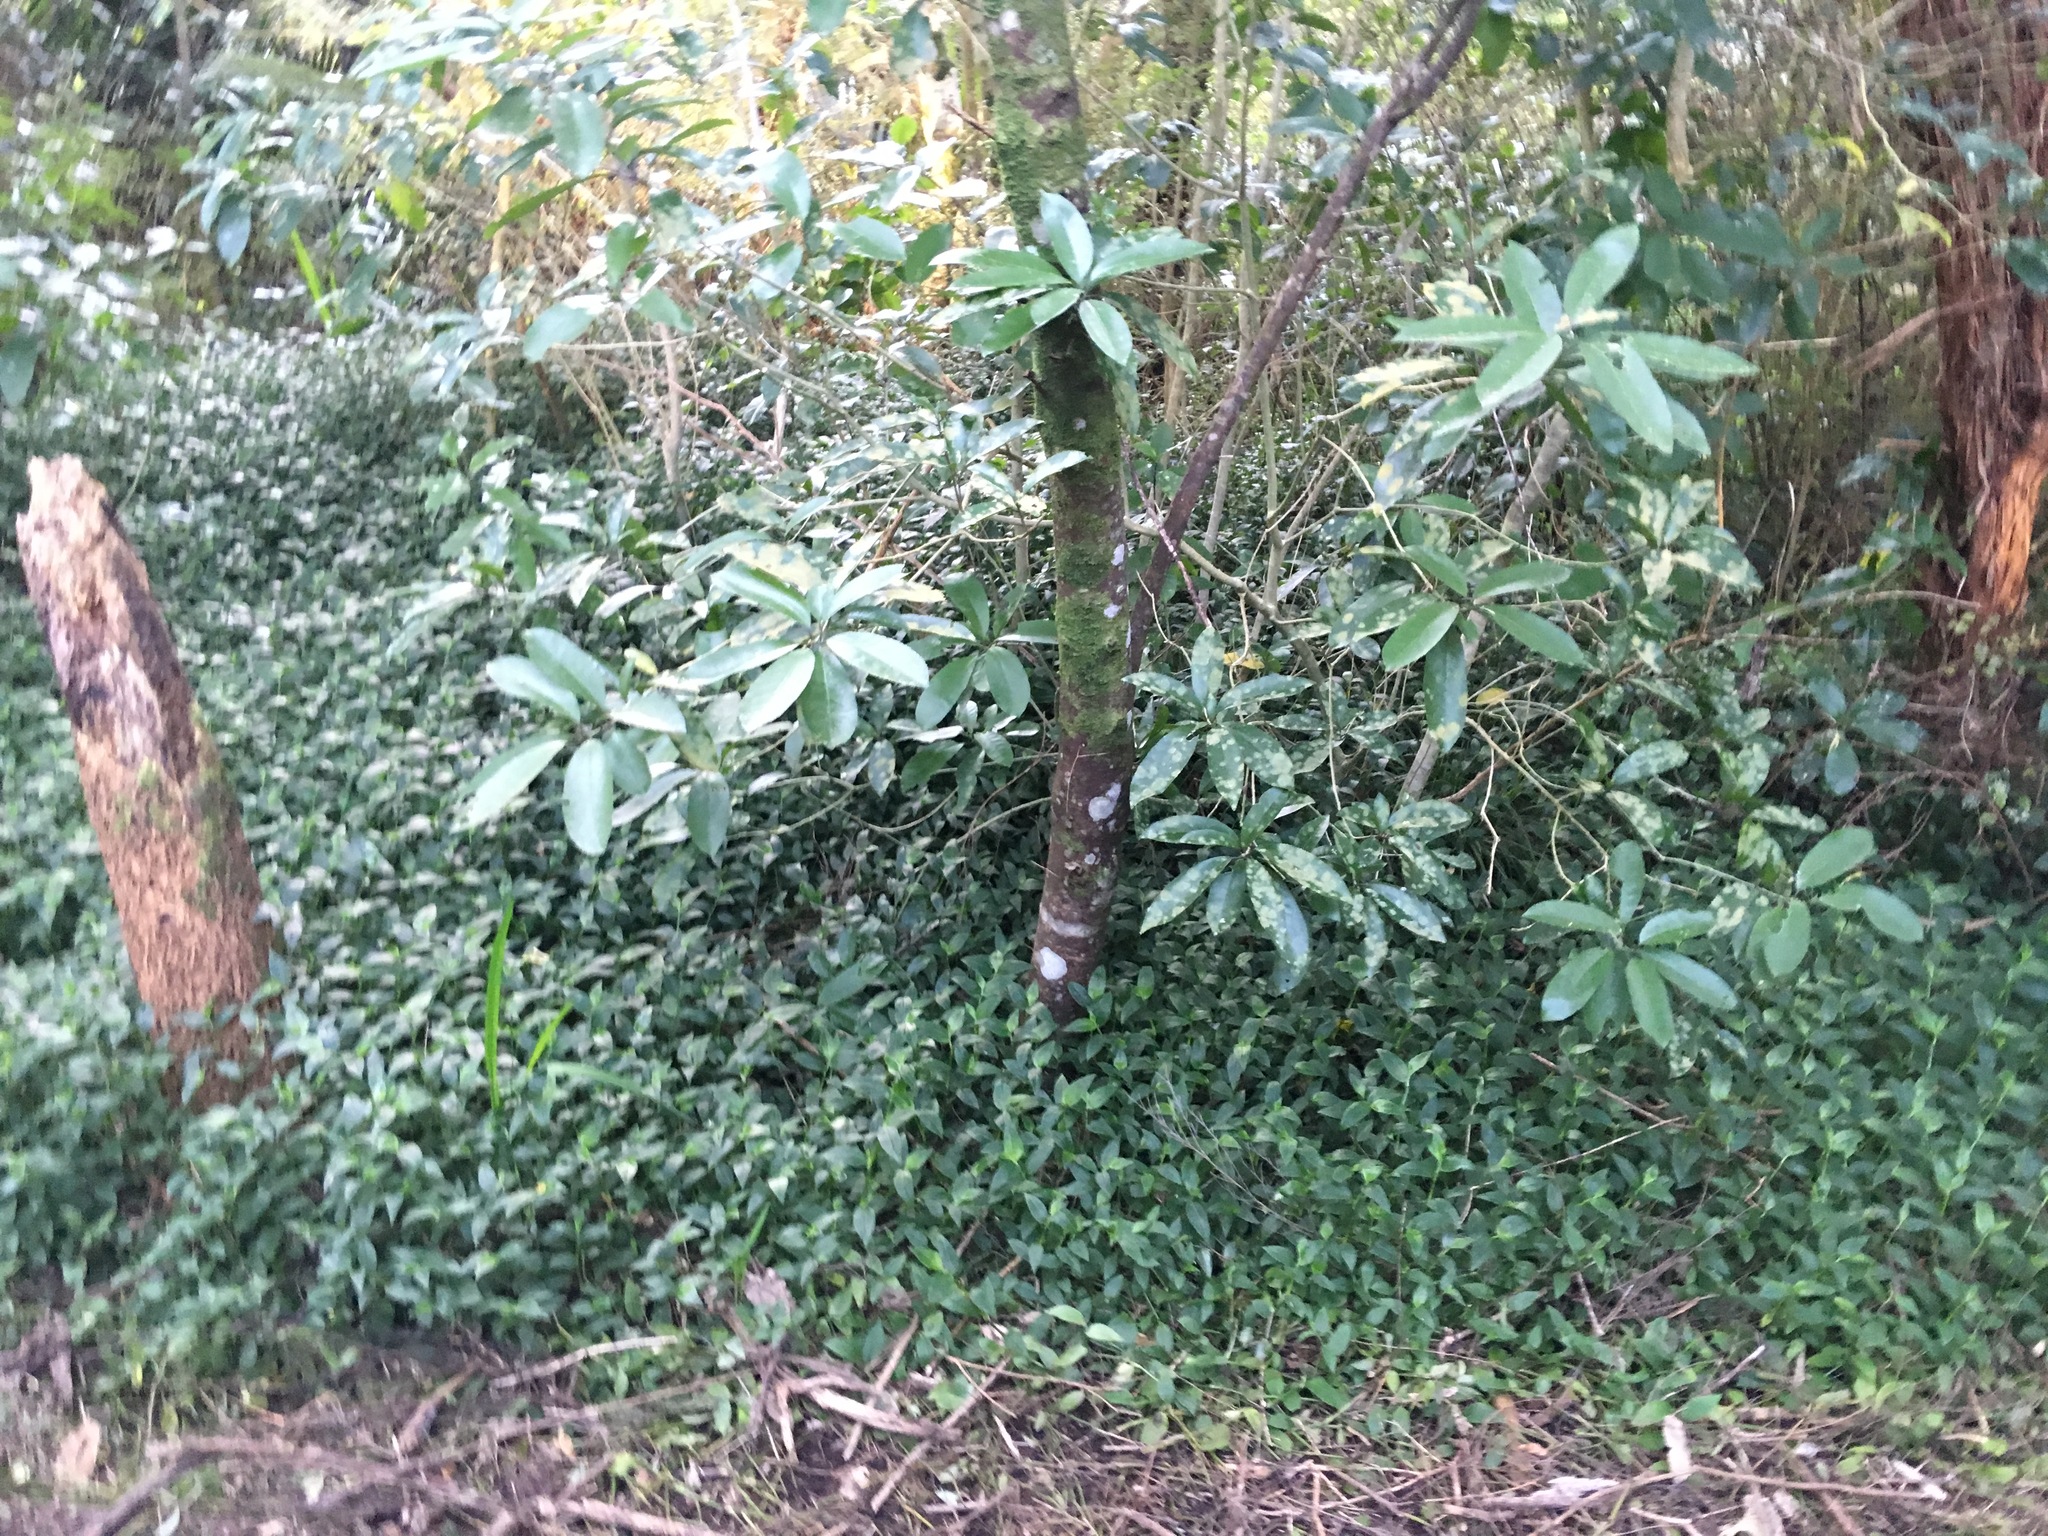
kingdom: Plantae
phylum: Tracheophyta
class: Magnoliopsida
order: Malpighiales
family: Violaceae
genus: Melicytus
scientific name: Melicytus ramiflorus
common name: Mahoe
